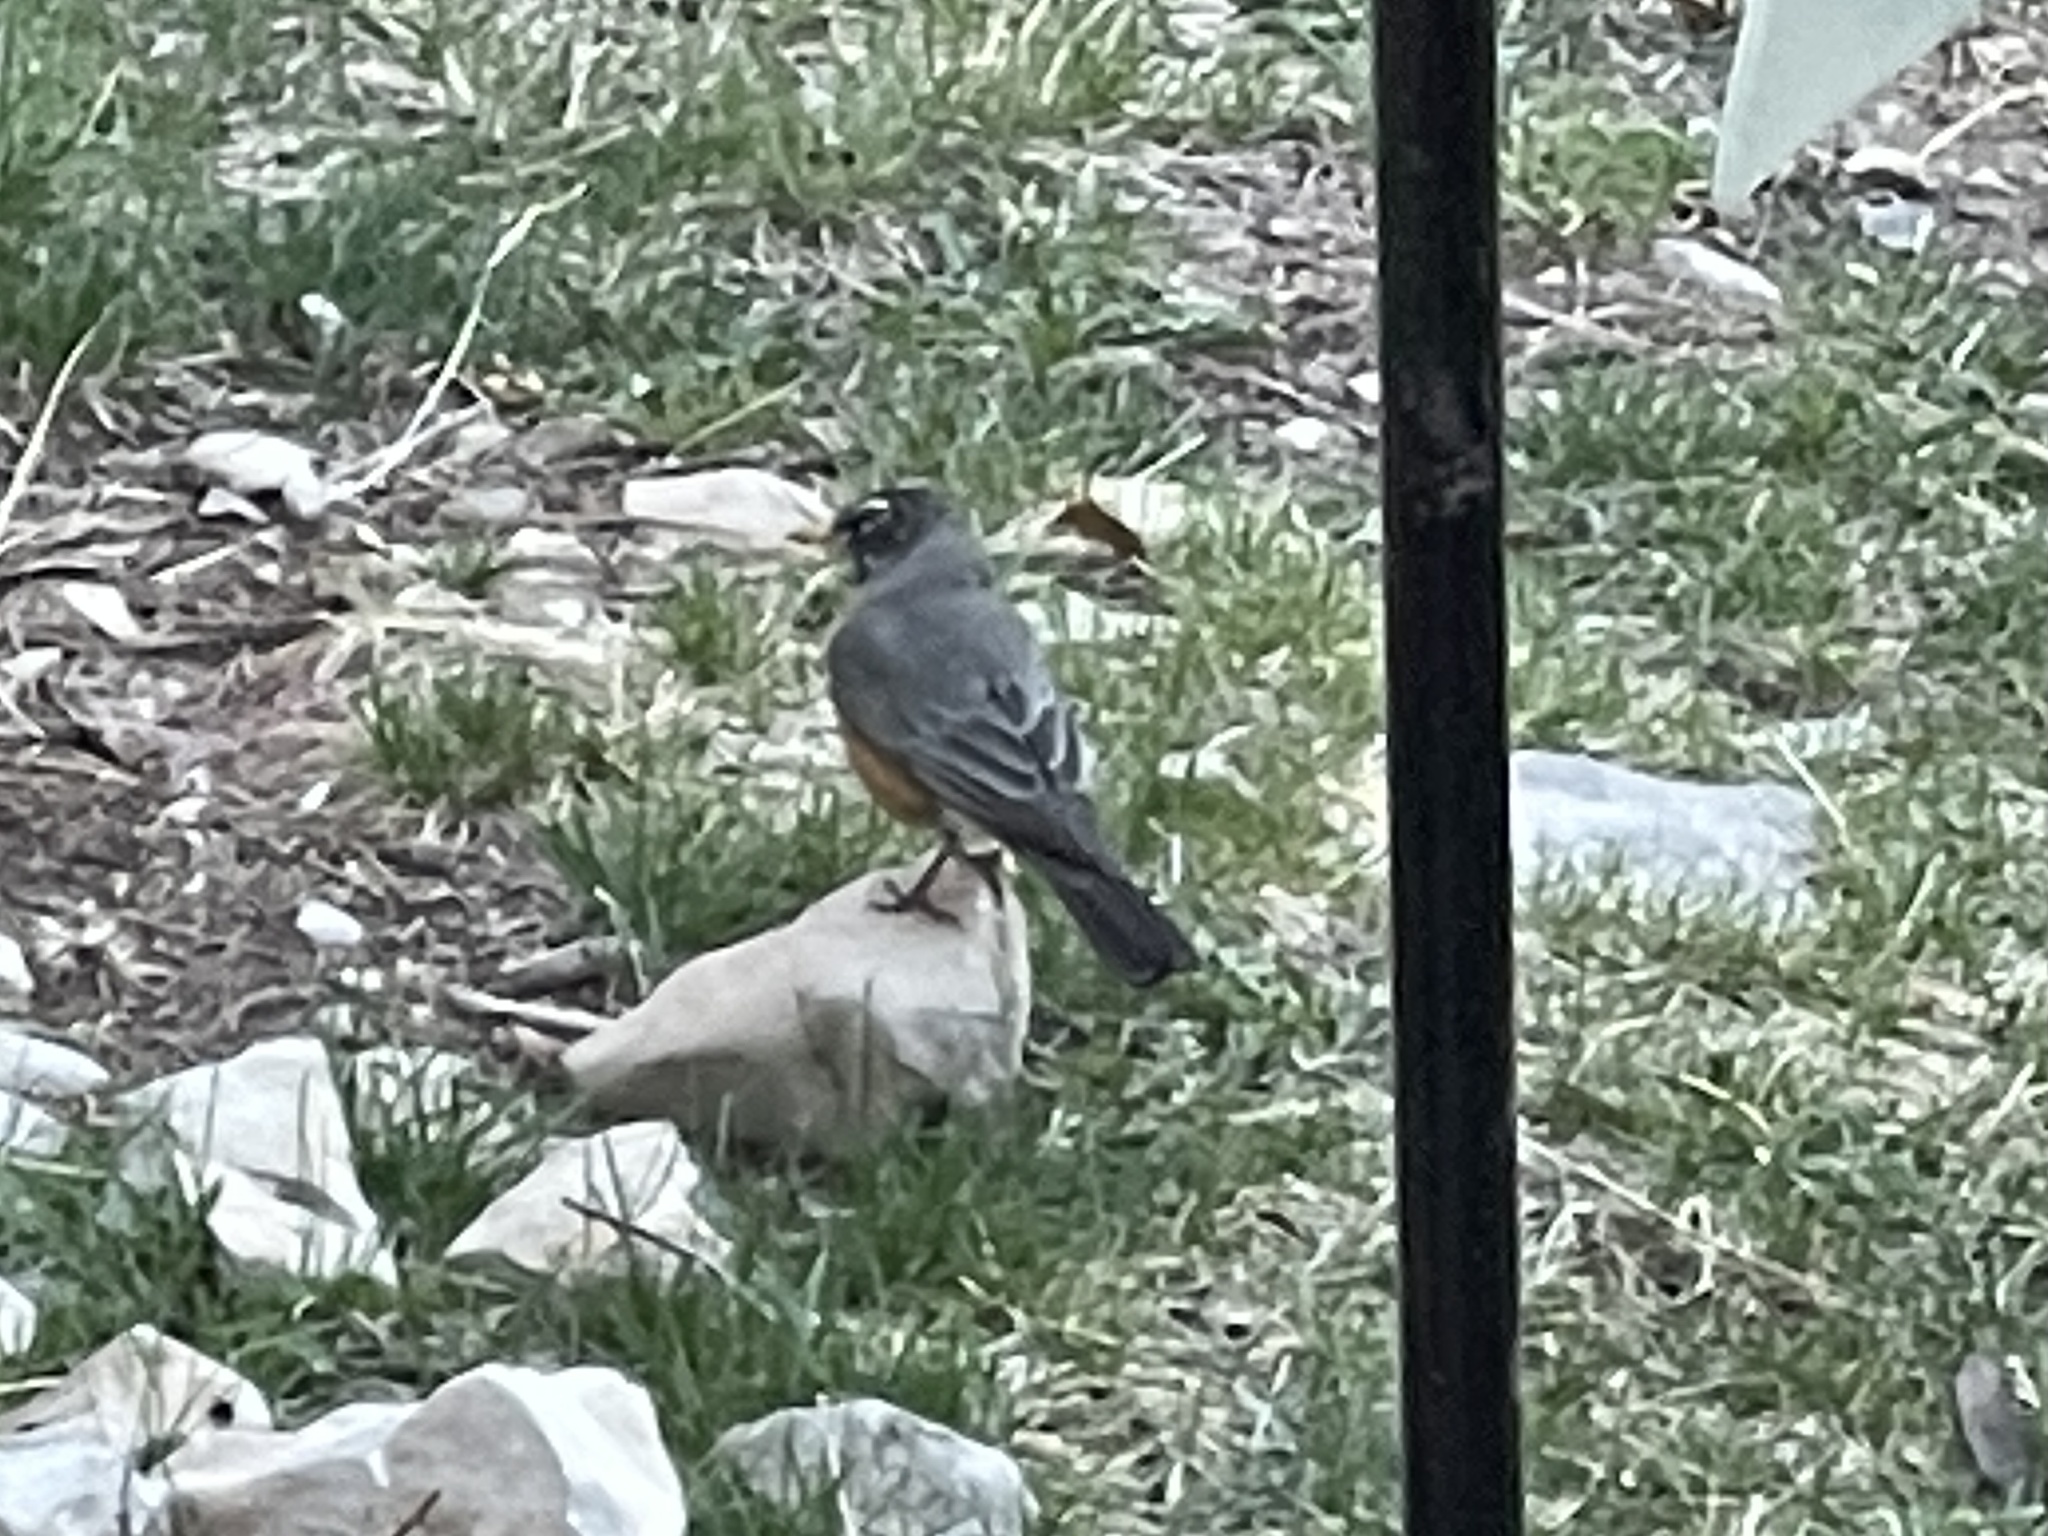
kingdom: Animalia
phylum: Chordata
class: Aves
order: Passeriformes
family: Turdidae
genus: Turdus
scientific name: Turdus migratorius
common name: American robin
